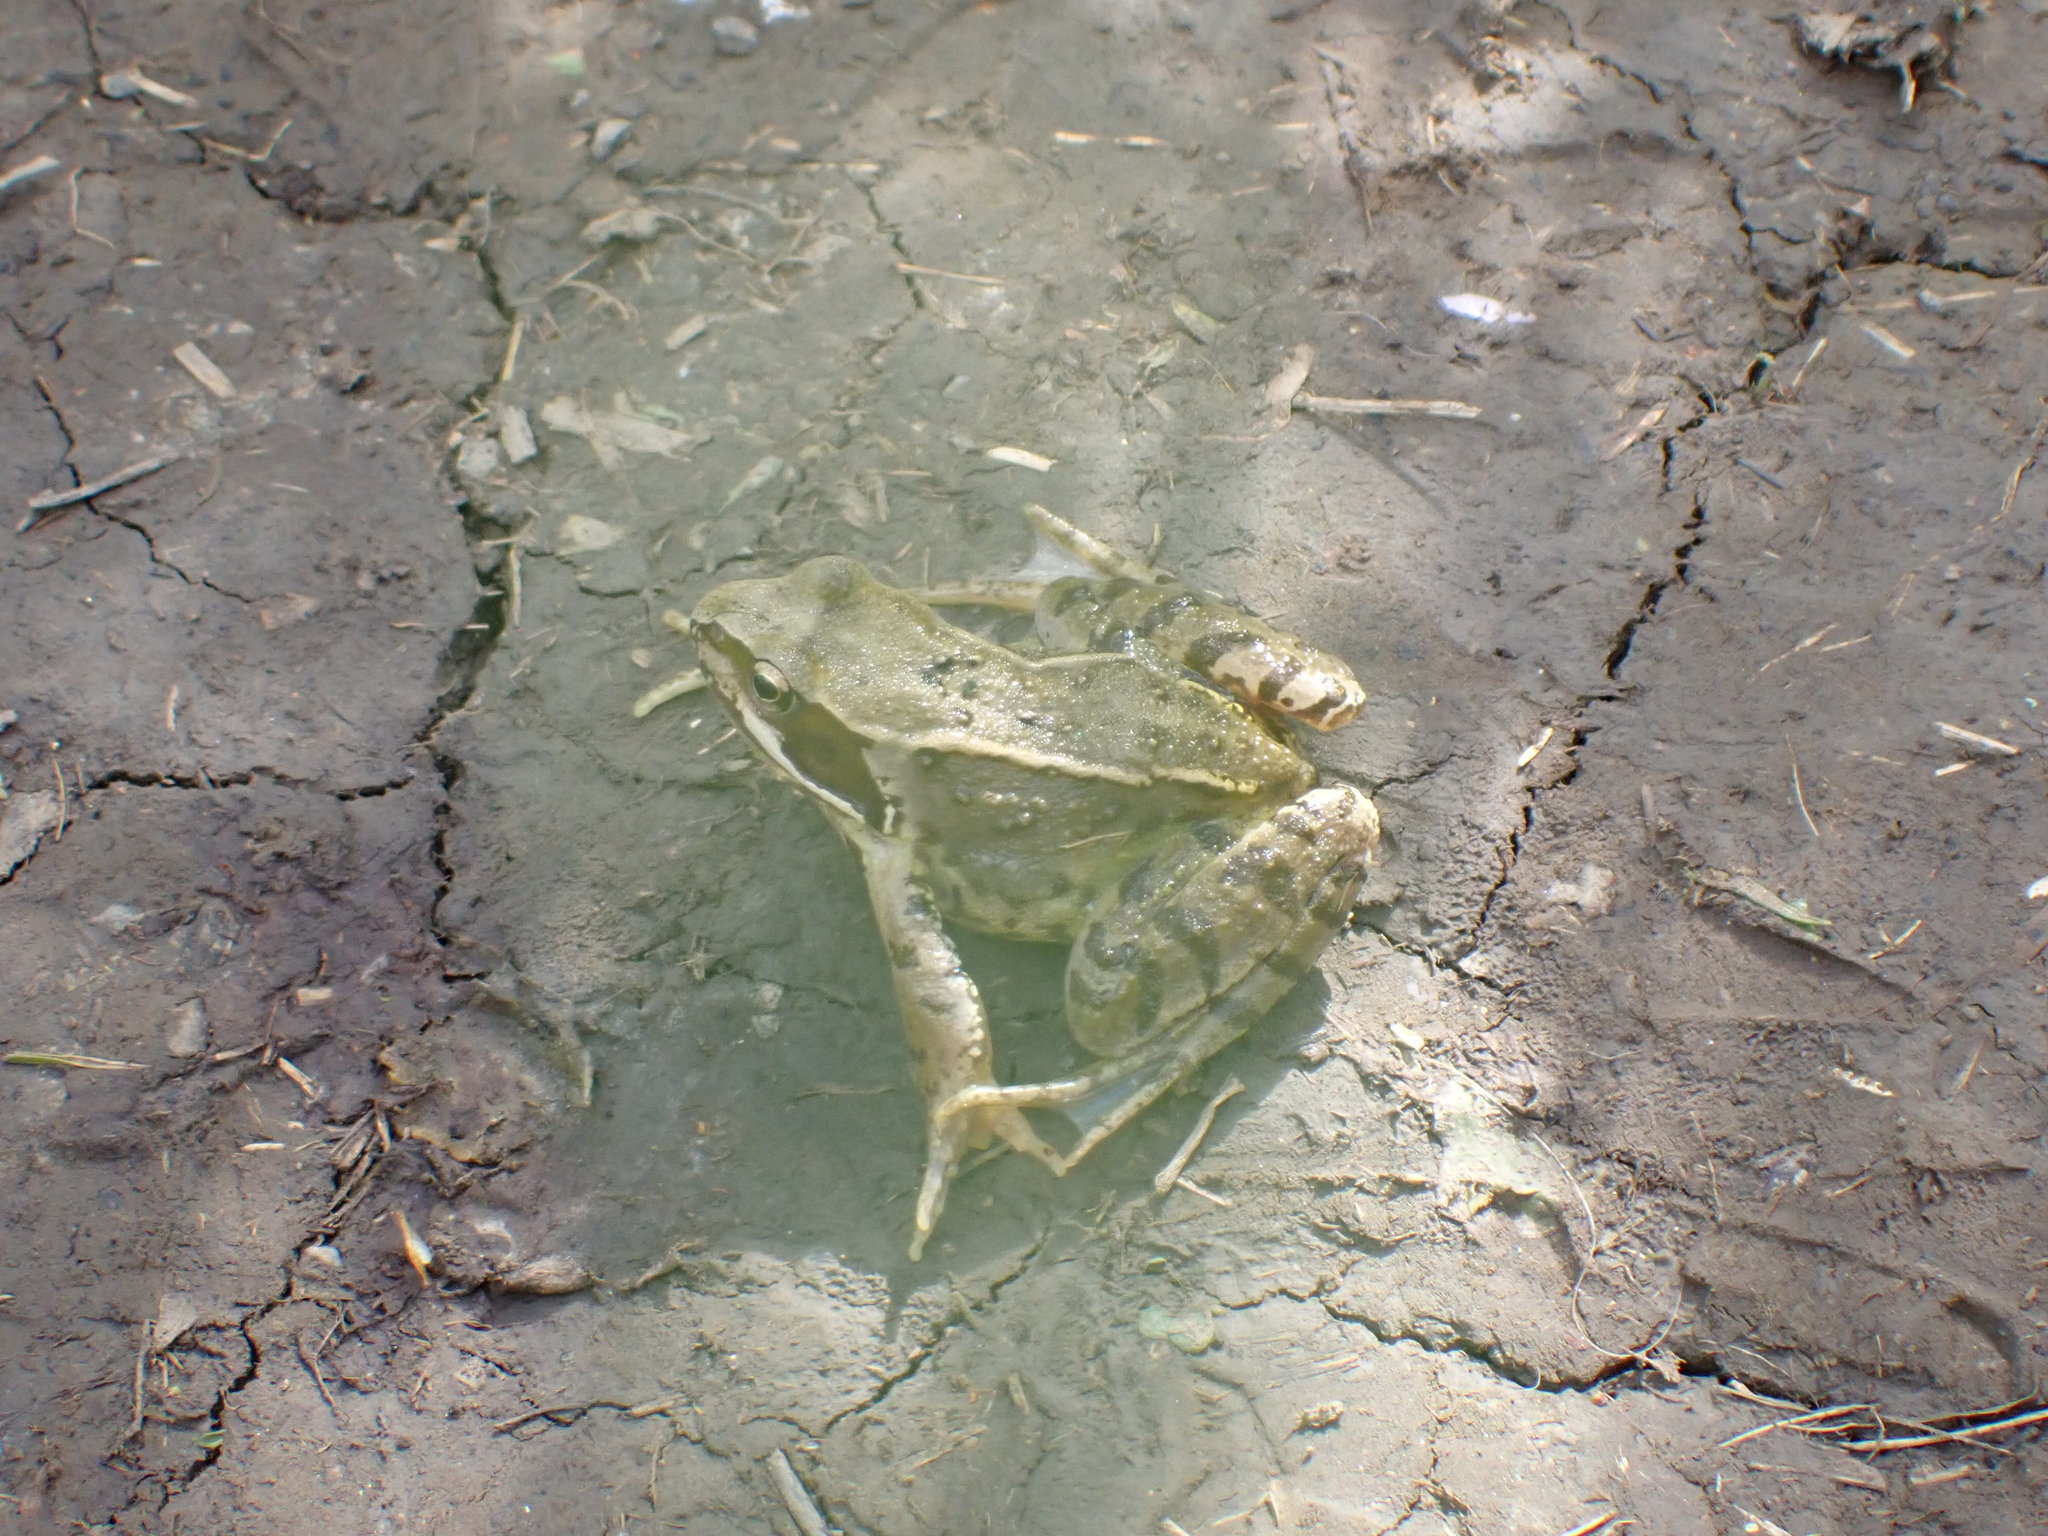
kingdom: Animalia
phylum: Chordata
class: Amphibia
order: Anura
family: Ranidae
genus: Rana
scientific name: Rana temporaria
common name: Common frog
